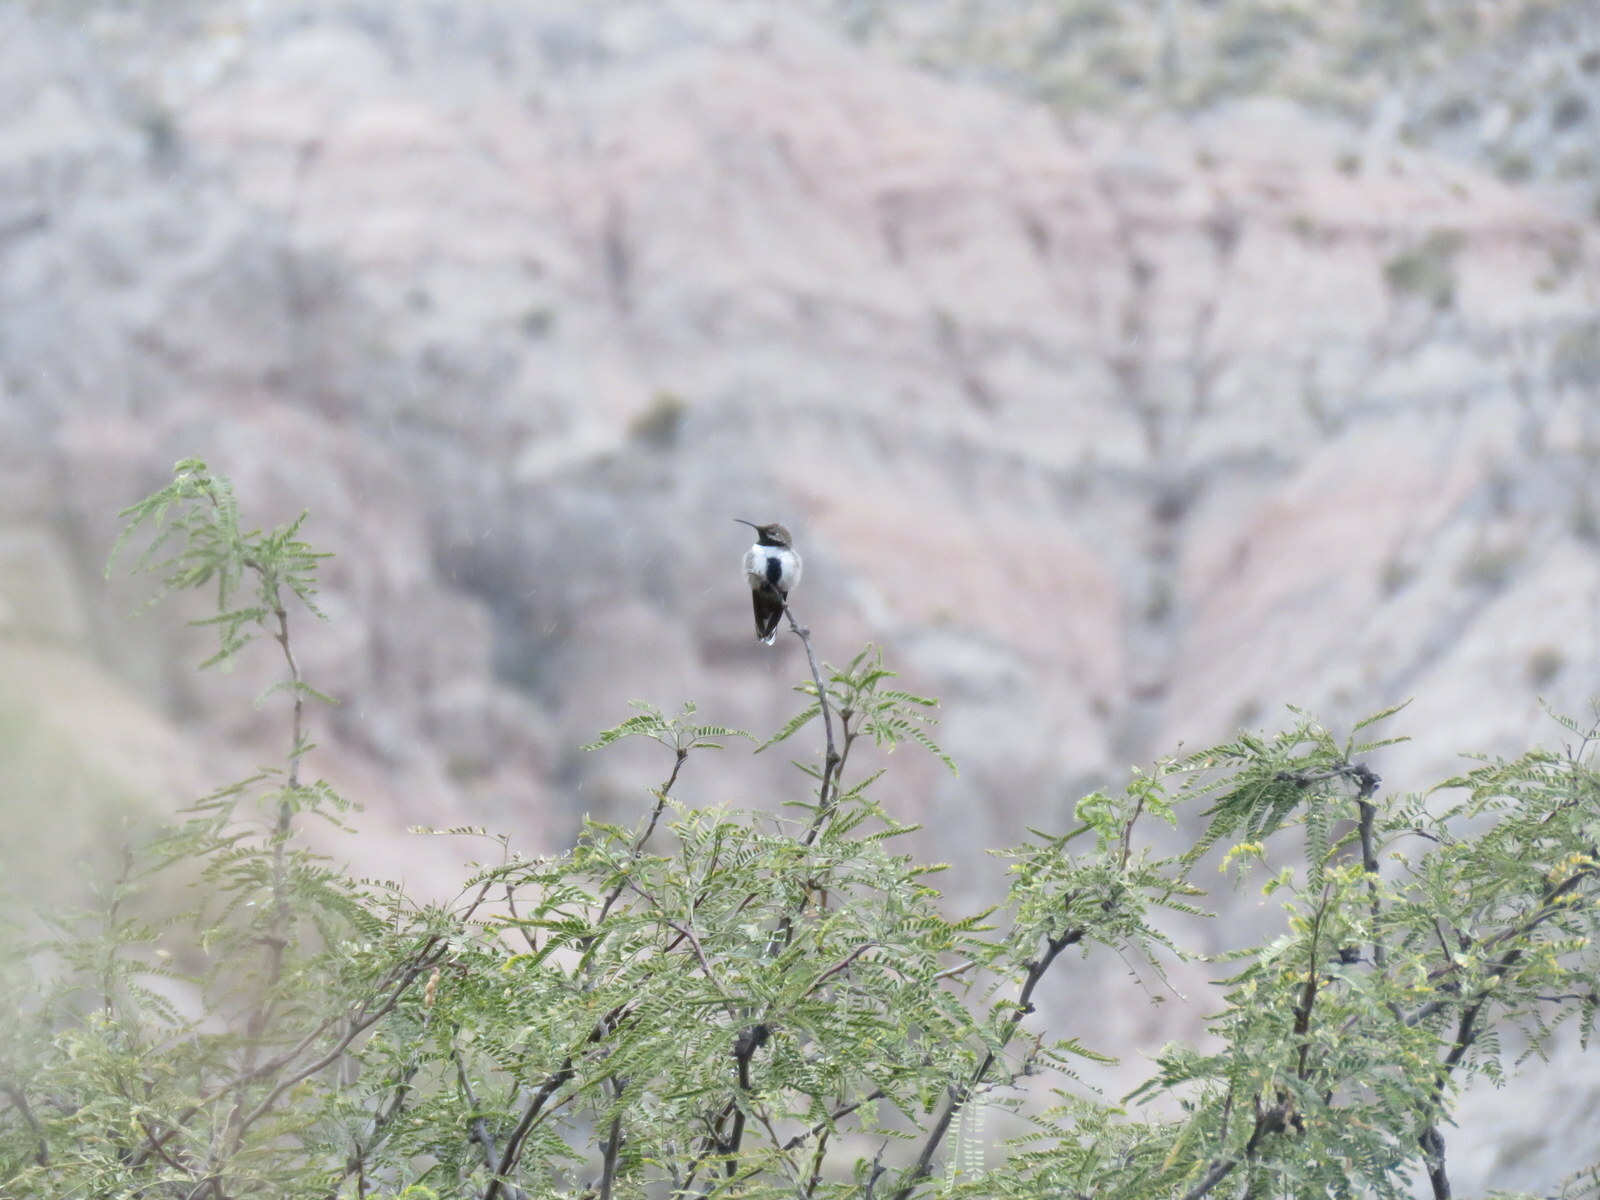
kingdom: Animalia
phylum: Chordata
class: Aves
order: Apodiformes
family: Trochilidae
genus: Oreotrochilus
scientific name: Oreotrochilus leucopleurus
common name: White-sided hillstar
